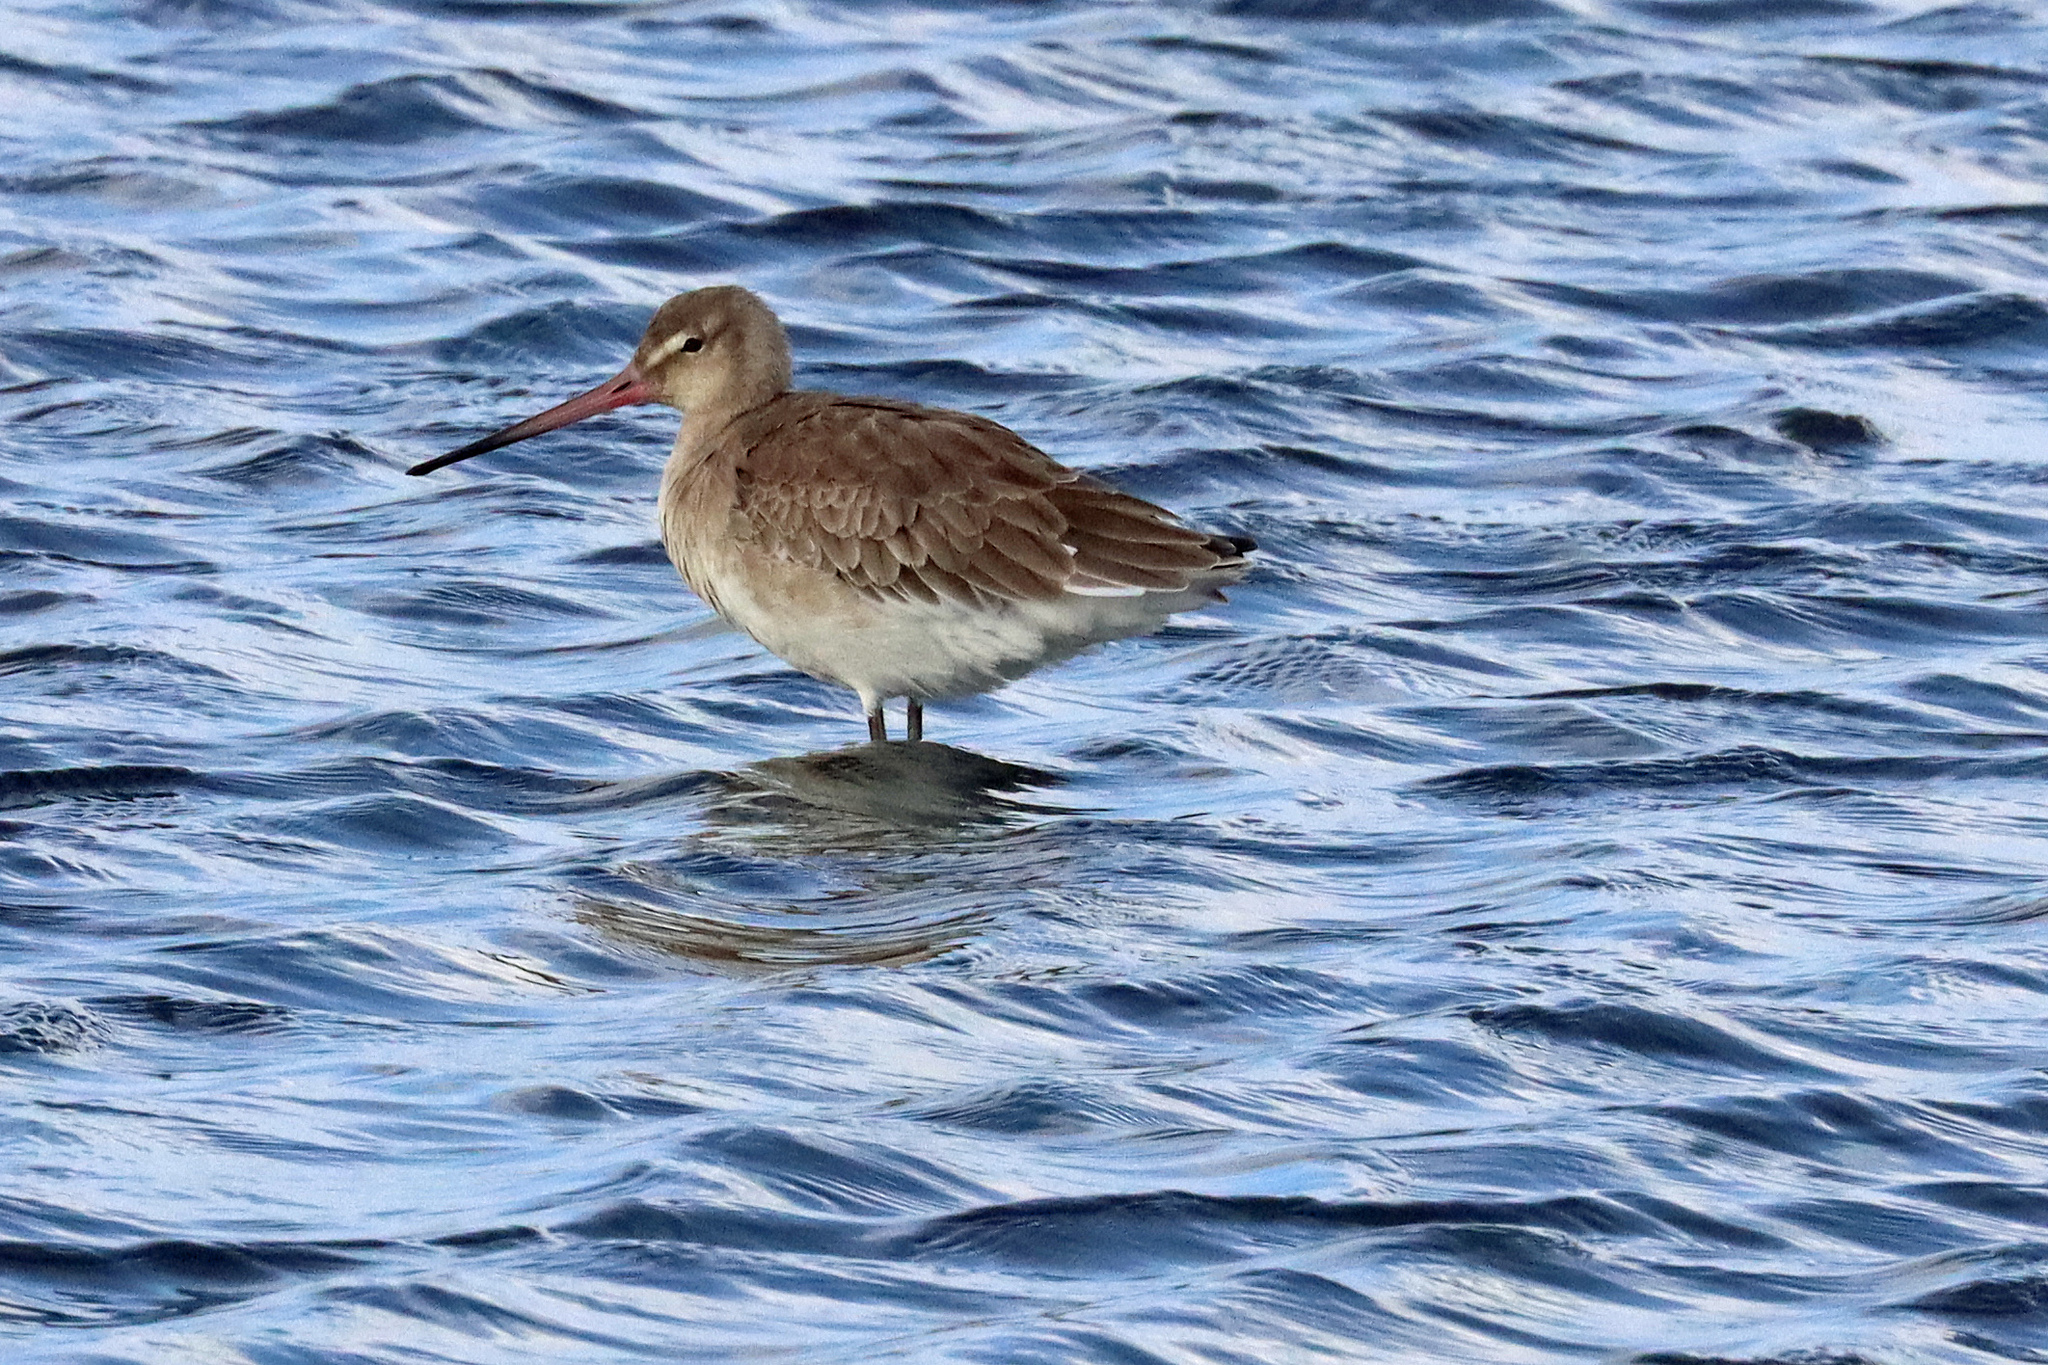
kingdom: Animalia
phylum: Chordata
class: Aves
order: Charadriiformes
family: Scolopacidae
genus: Limosa
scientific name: Limosa limosa
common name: Black-tailed godwit
